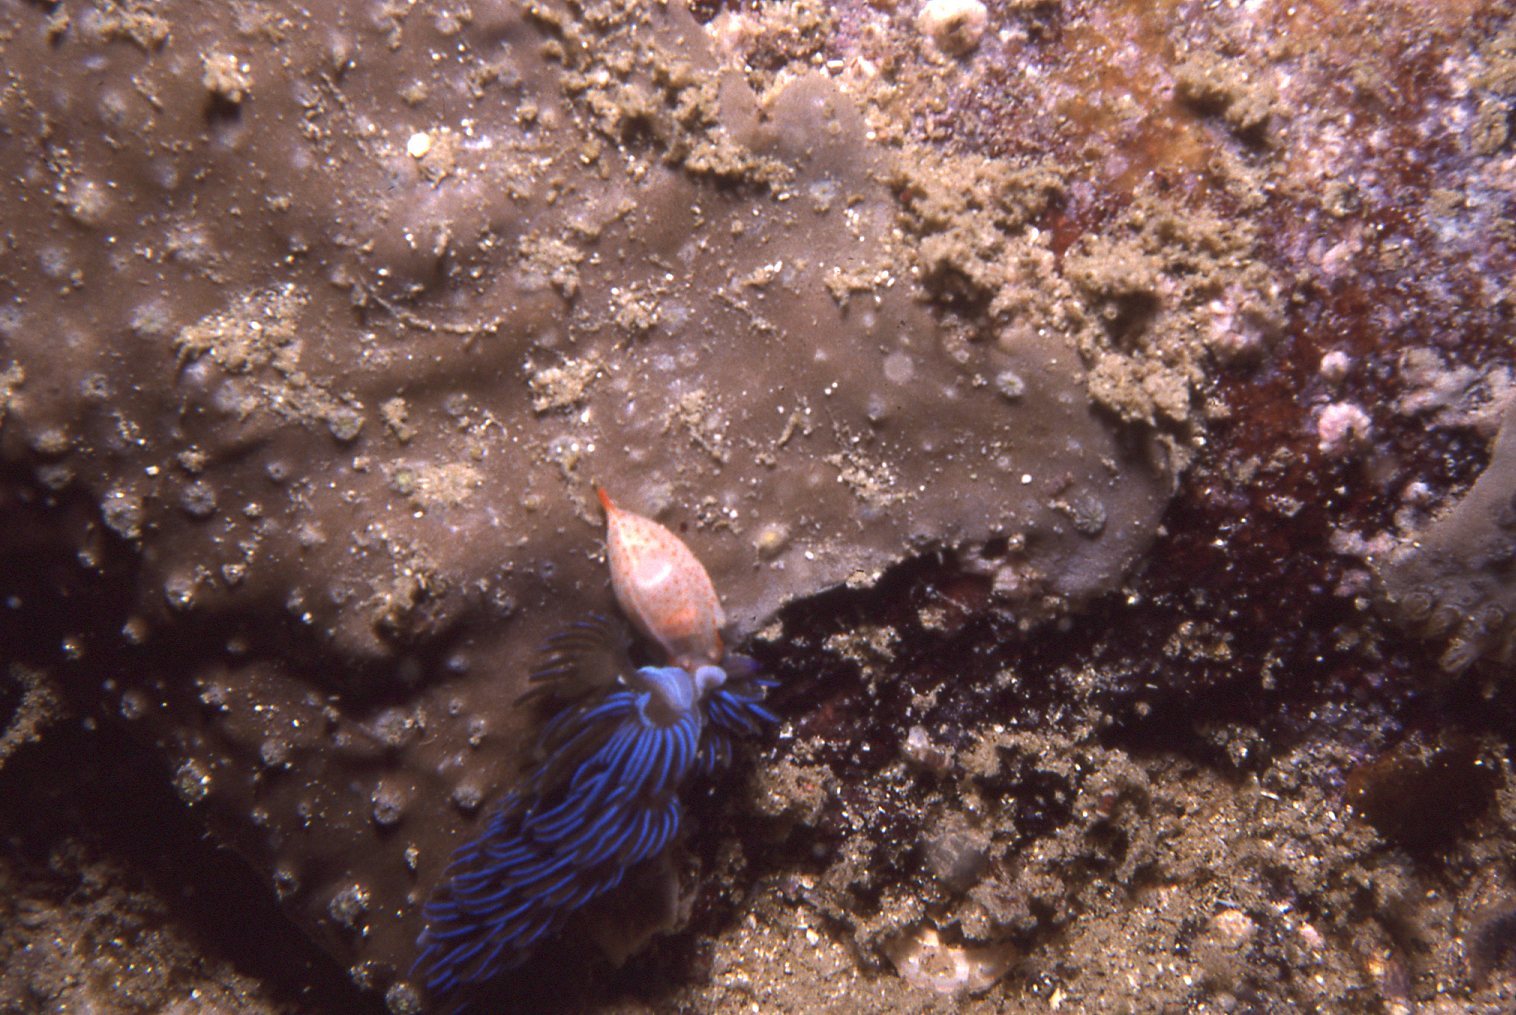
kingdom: Animalia
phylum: Mollusca
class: Gastropoda
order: Nudibranchia
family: Facelinidae
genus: Pteraeolidia
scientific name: Pteraeolidia ianthina
